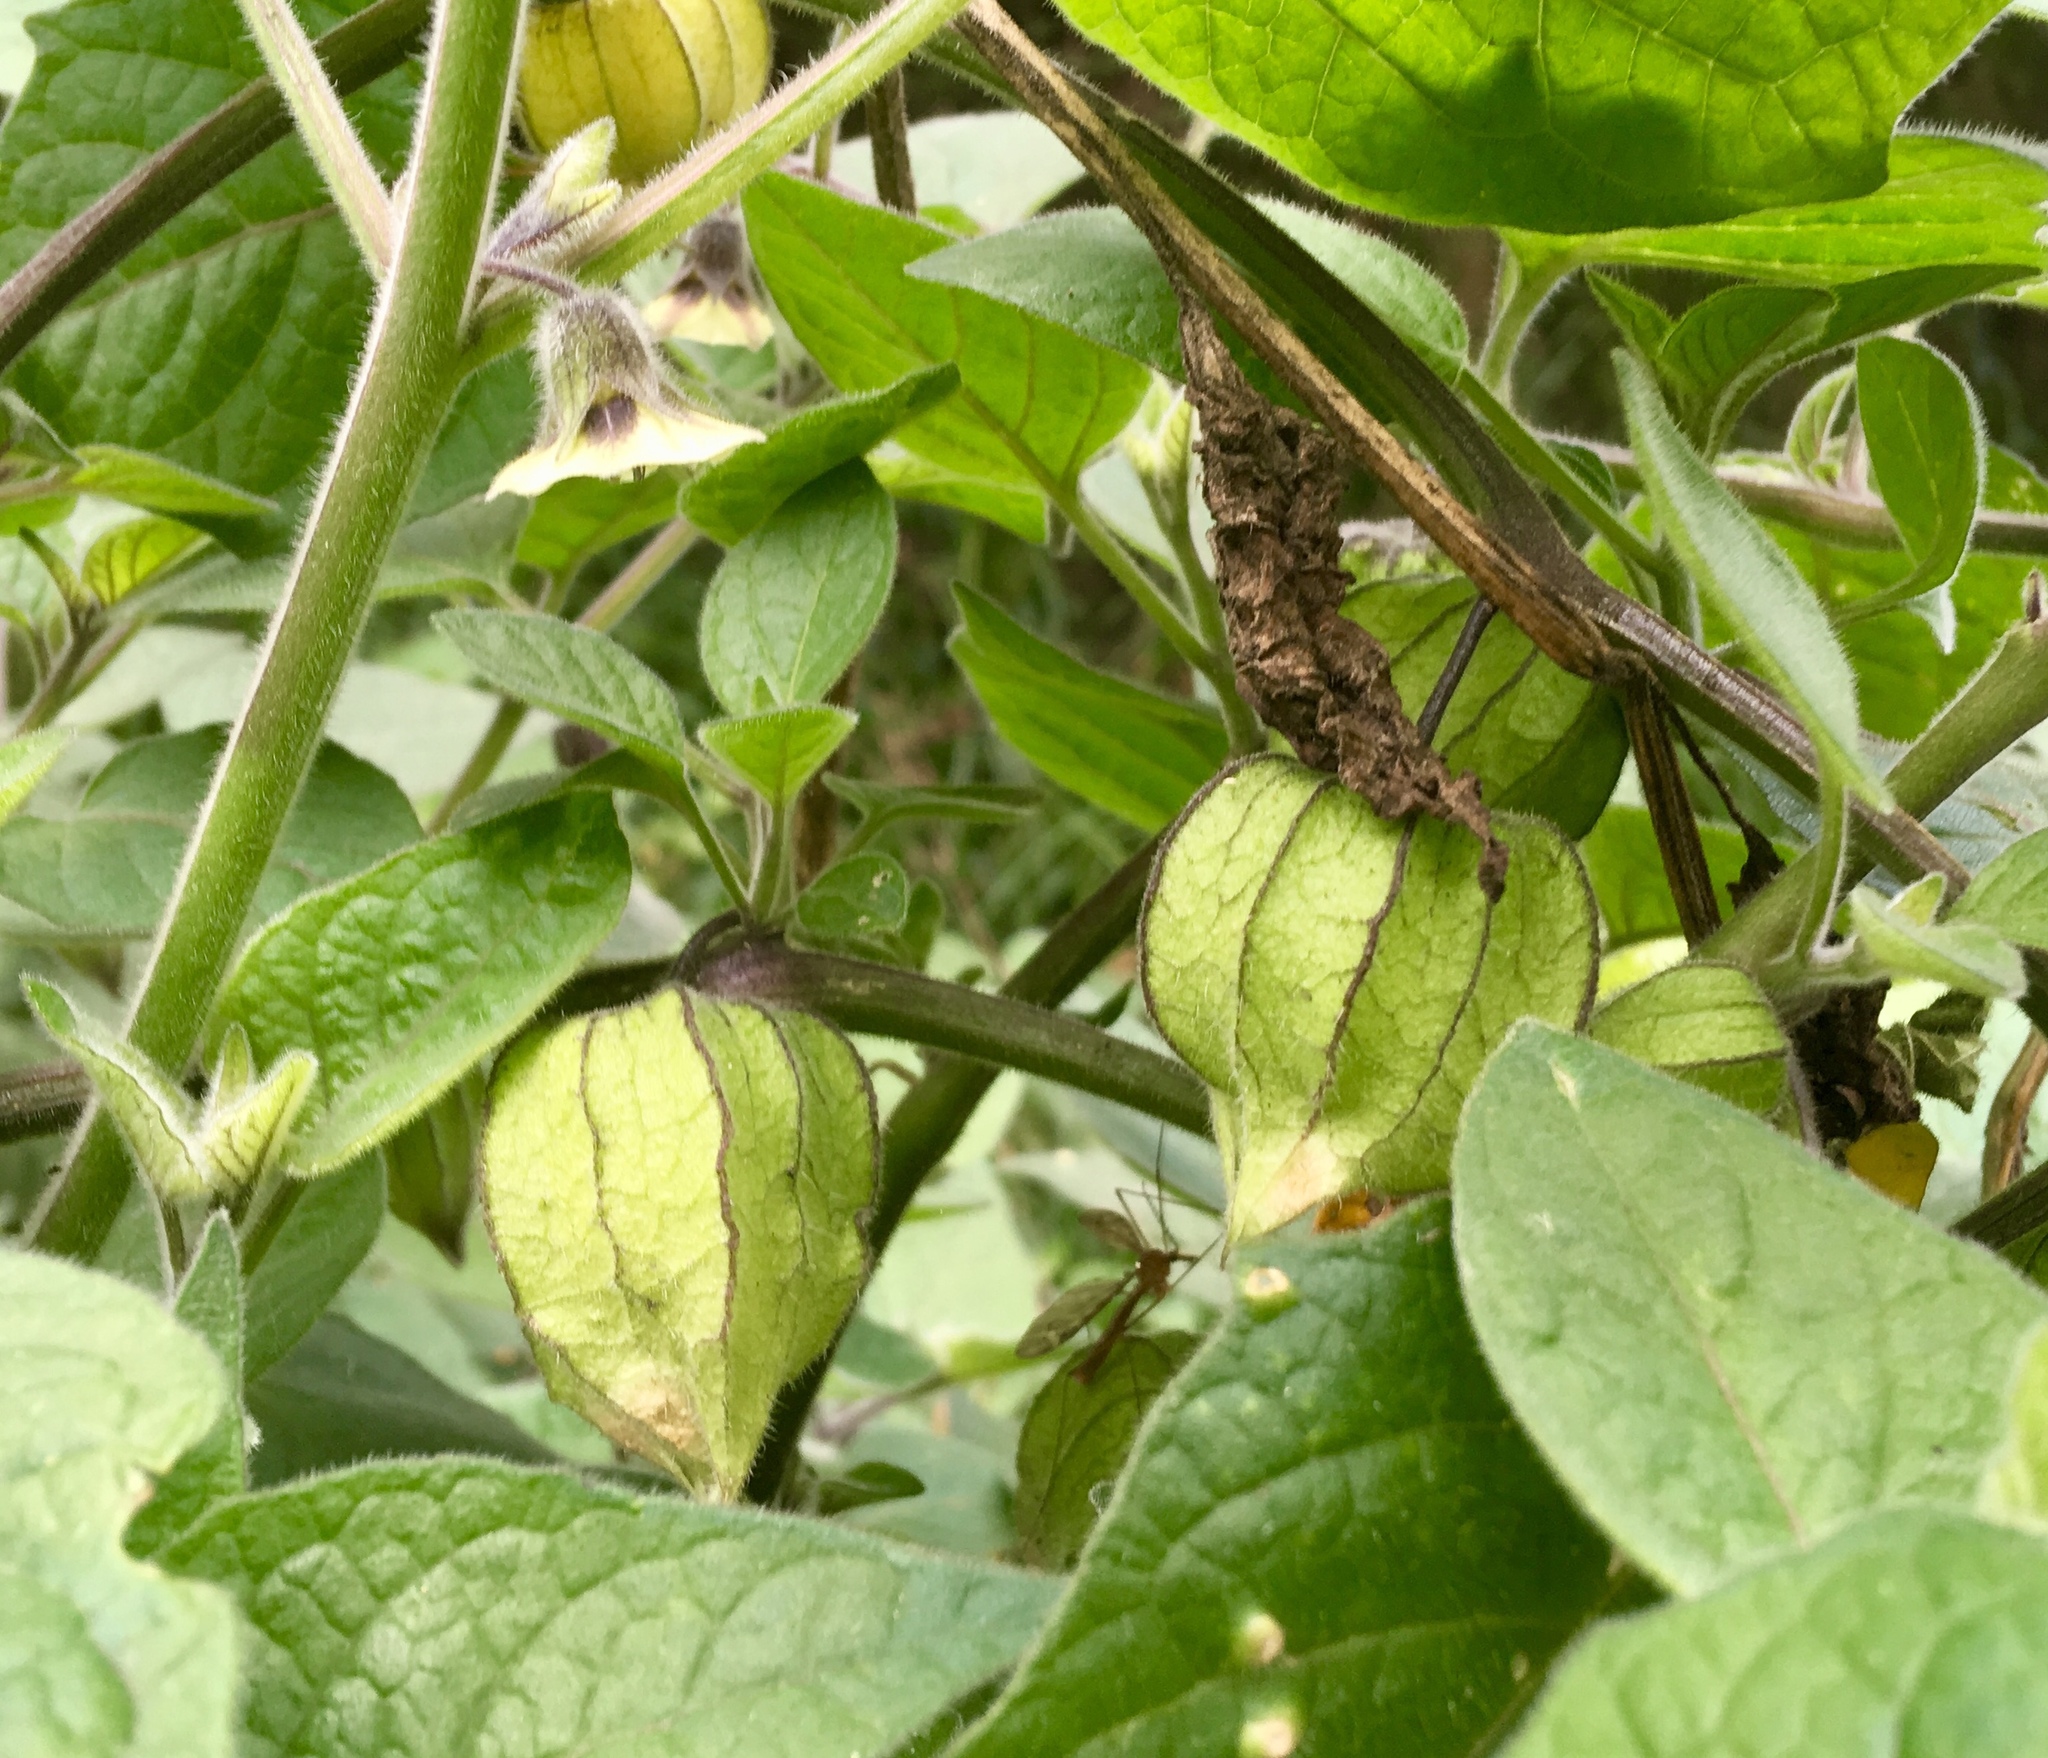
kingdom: Plantae
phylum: Tracheophyta
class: Magnoliopsida
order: Solanales
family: Solanaceae
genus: Physalis
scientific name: Physalis peruviana
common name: Cape-gooseberry
